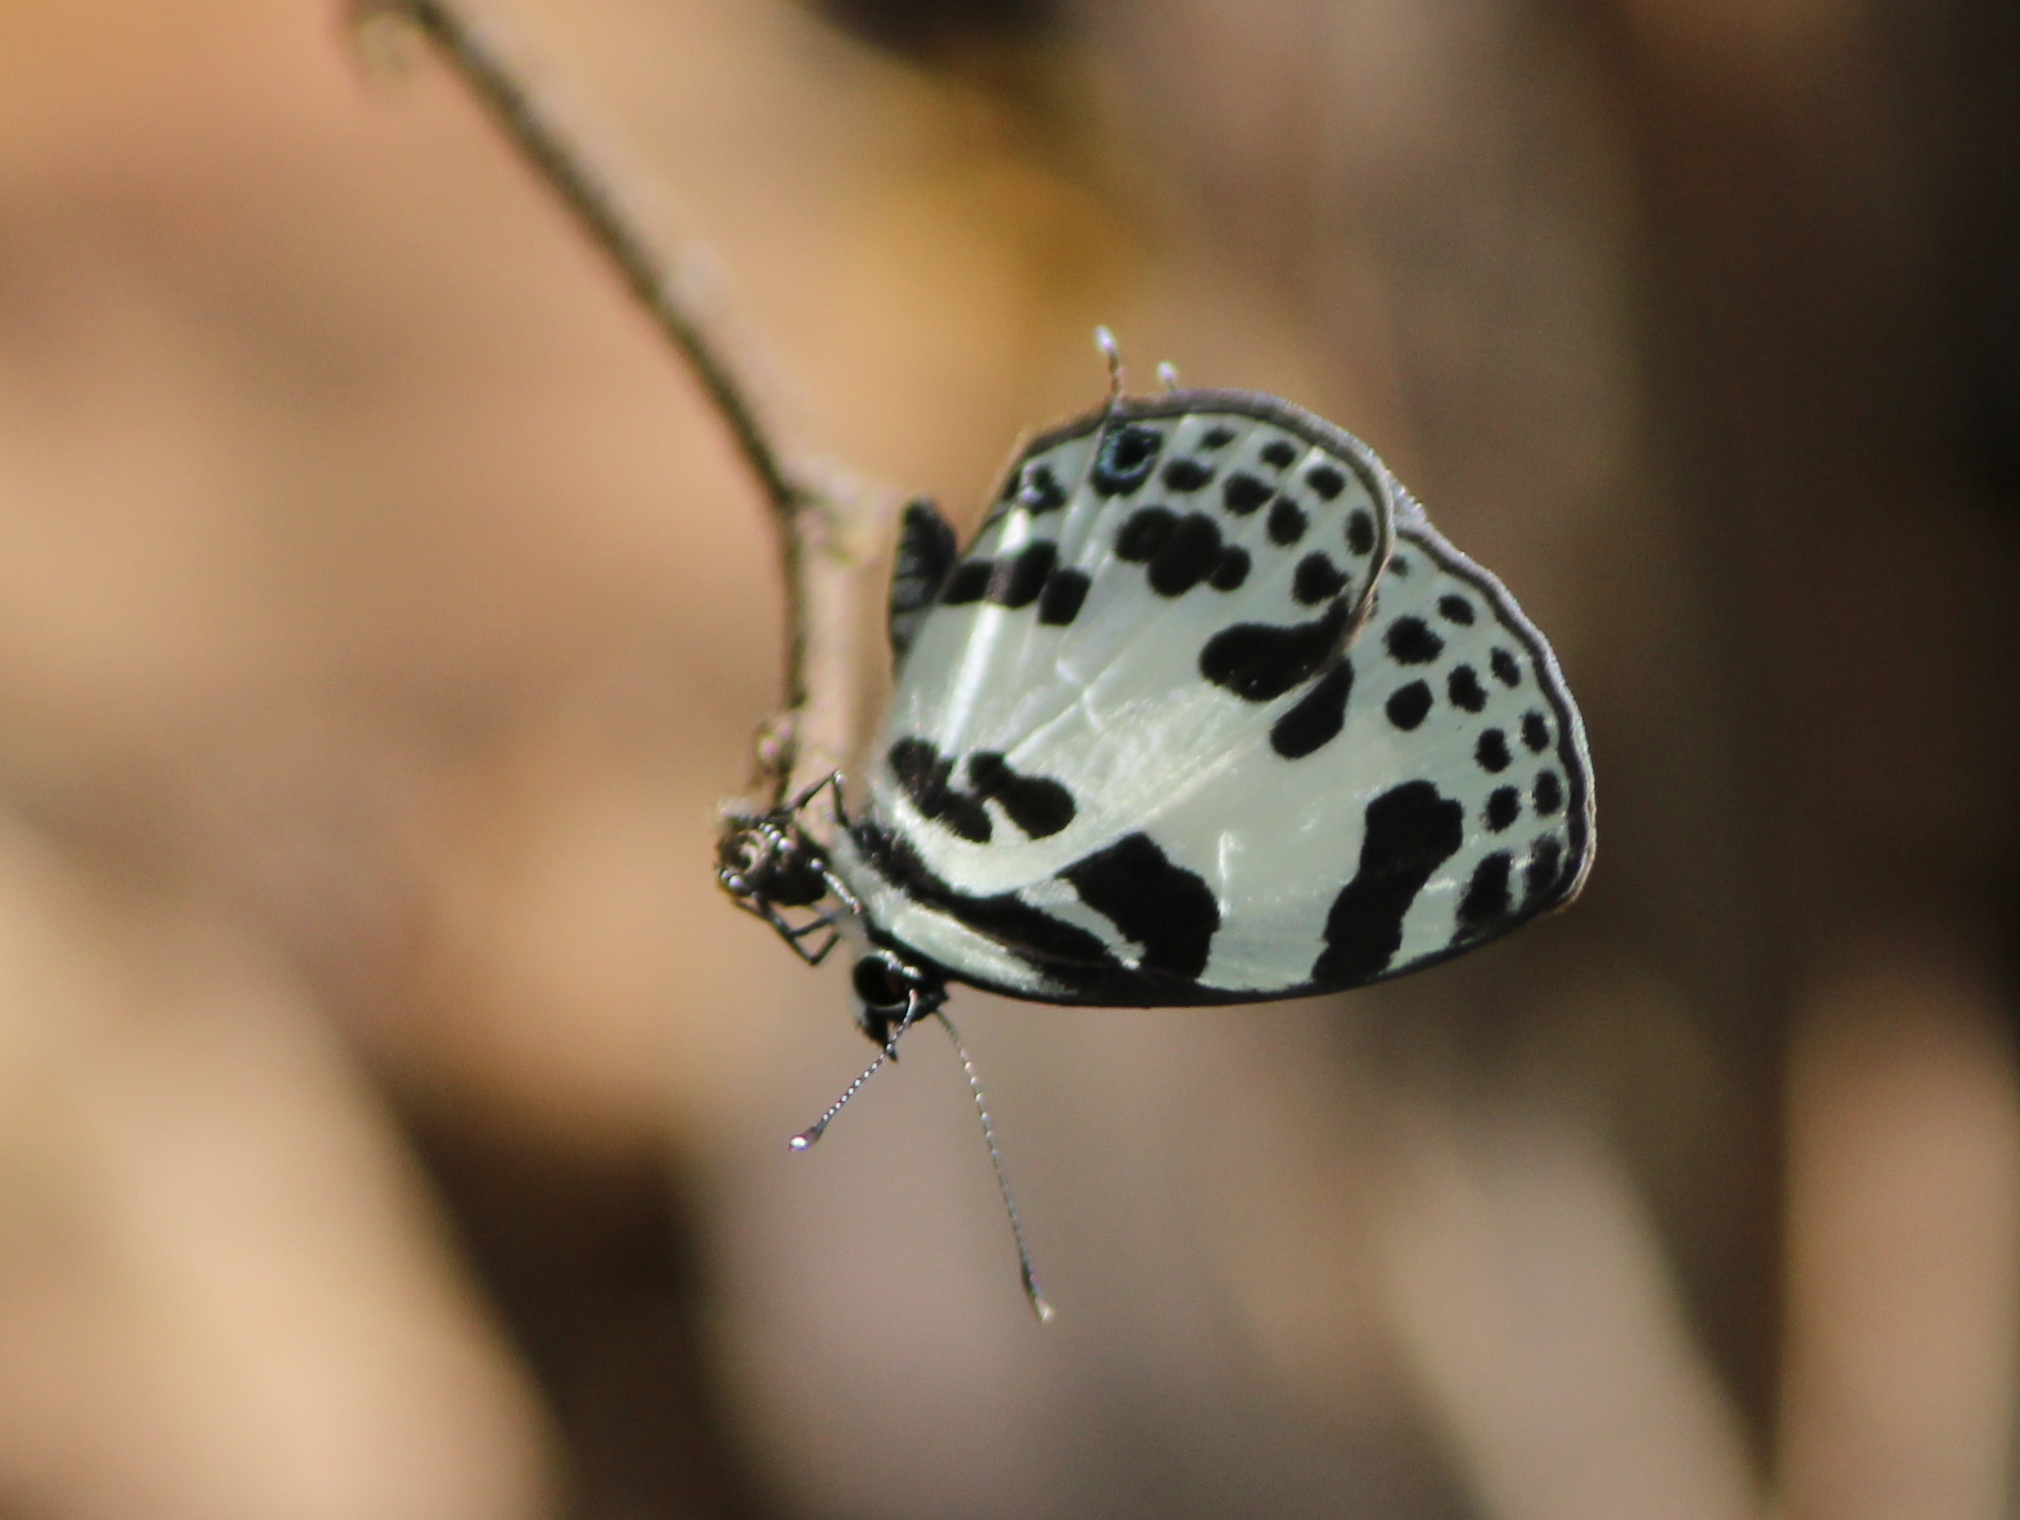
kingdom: Animalia
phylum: Arthropoda
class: Insecta
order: Lepidoptera
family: Lycaenidae
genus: Discolampa
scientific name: Discolampa ethion
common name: Banded blue pierrot
